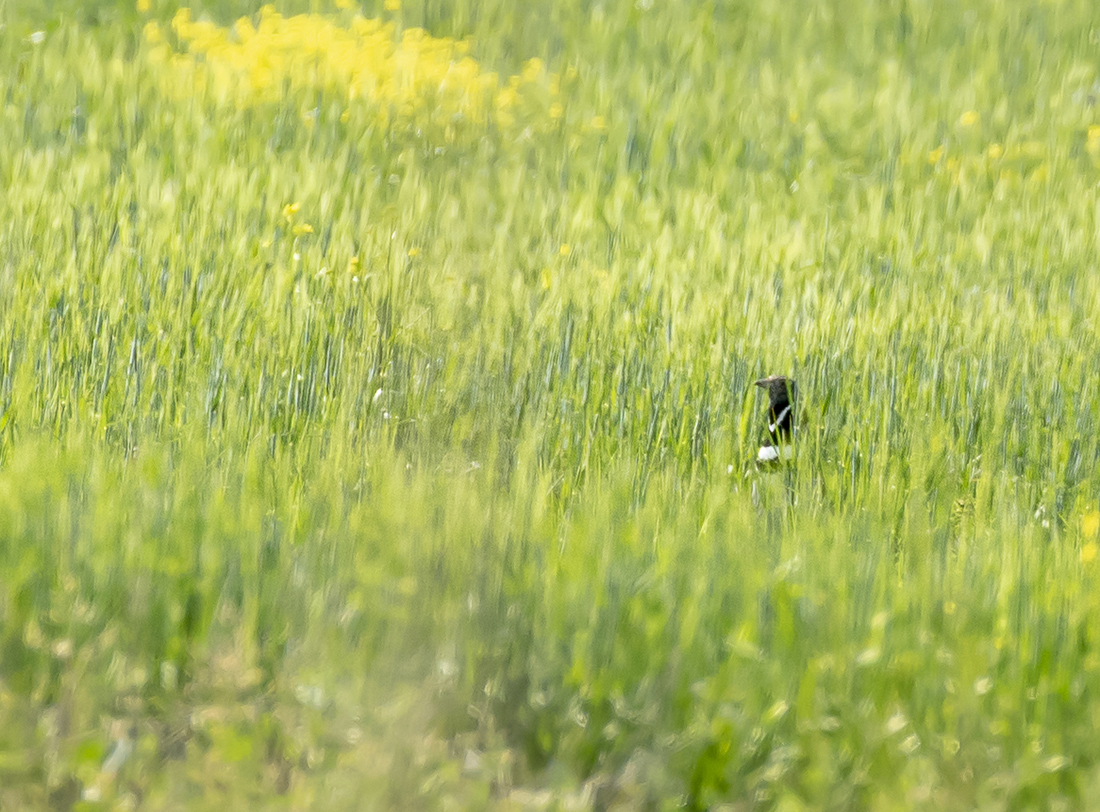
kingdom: Animalia
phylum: Chordata
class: Aves
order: Otidiformes
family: Otididae
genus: Tetrax
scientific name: Tetrax tetrax
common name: Little bustard
